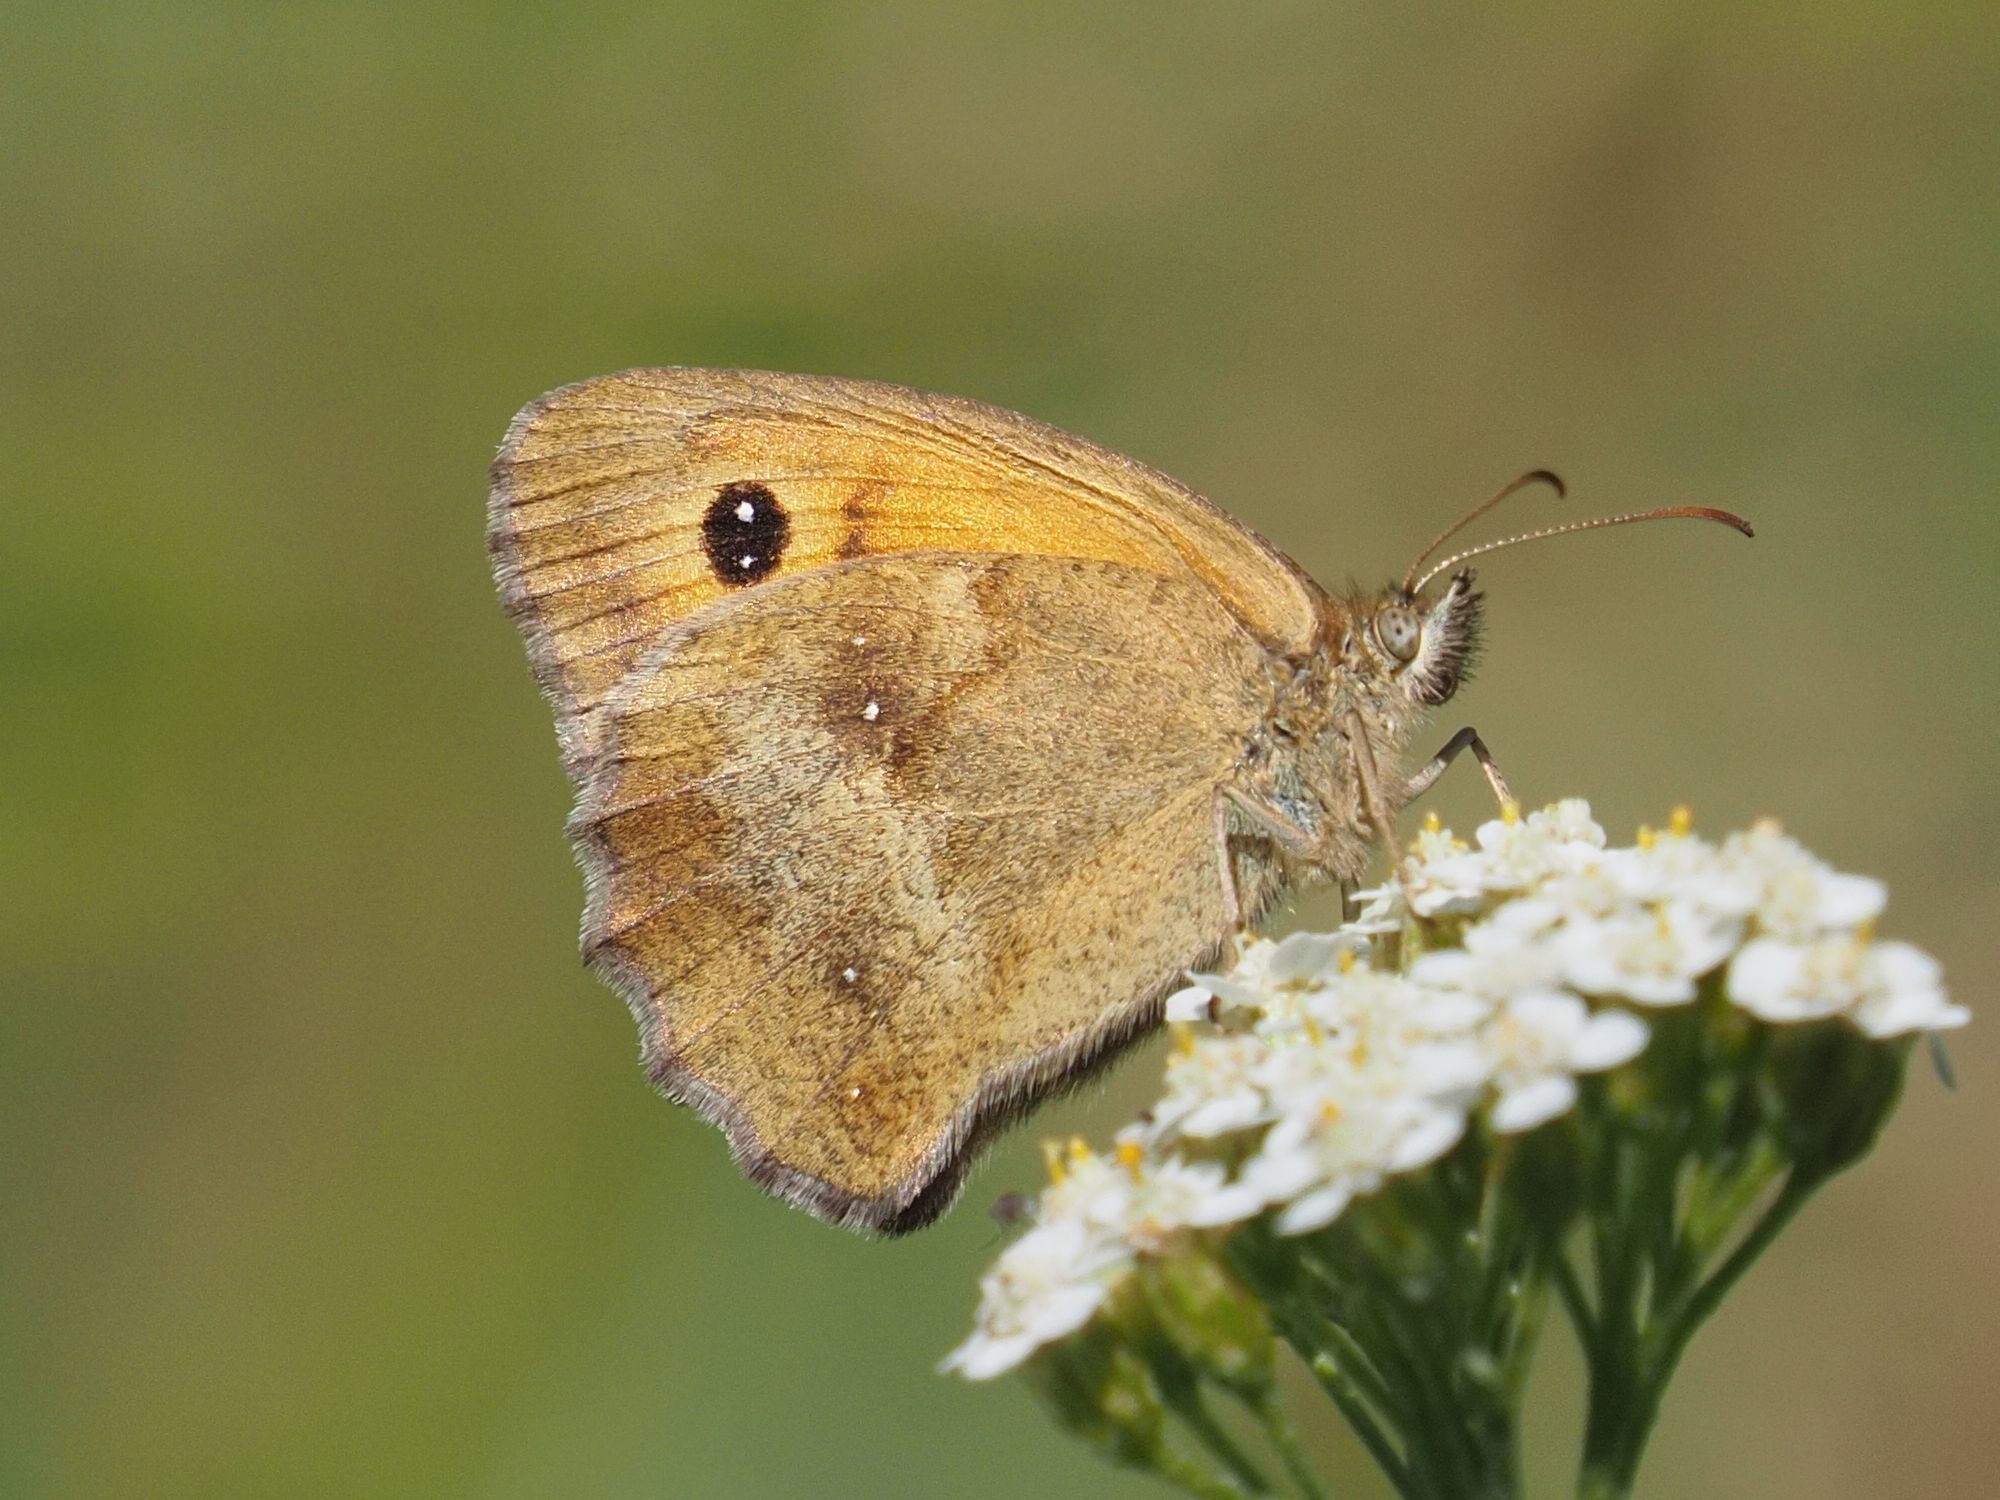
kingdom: Animalia
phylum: Arthropoda
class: Insecta
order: Lepidoptera
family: Nymphalidae
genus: Pyronia
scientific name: Pyronia tithonus
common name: Gatekeeper
